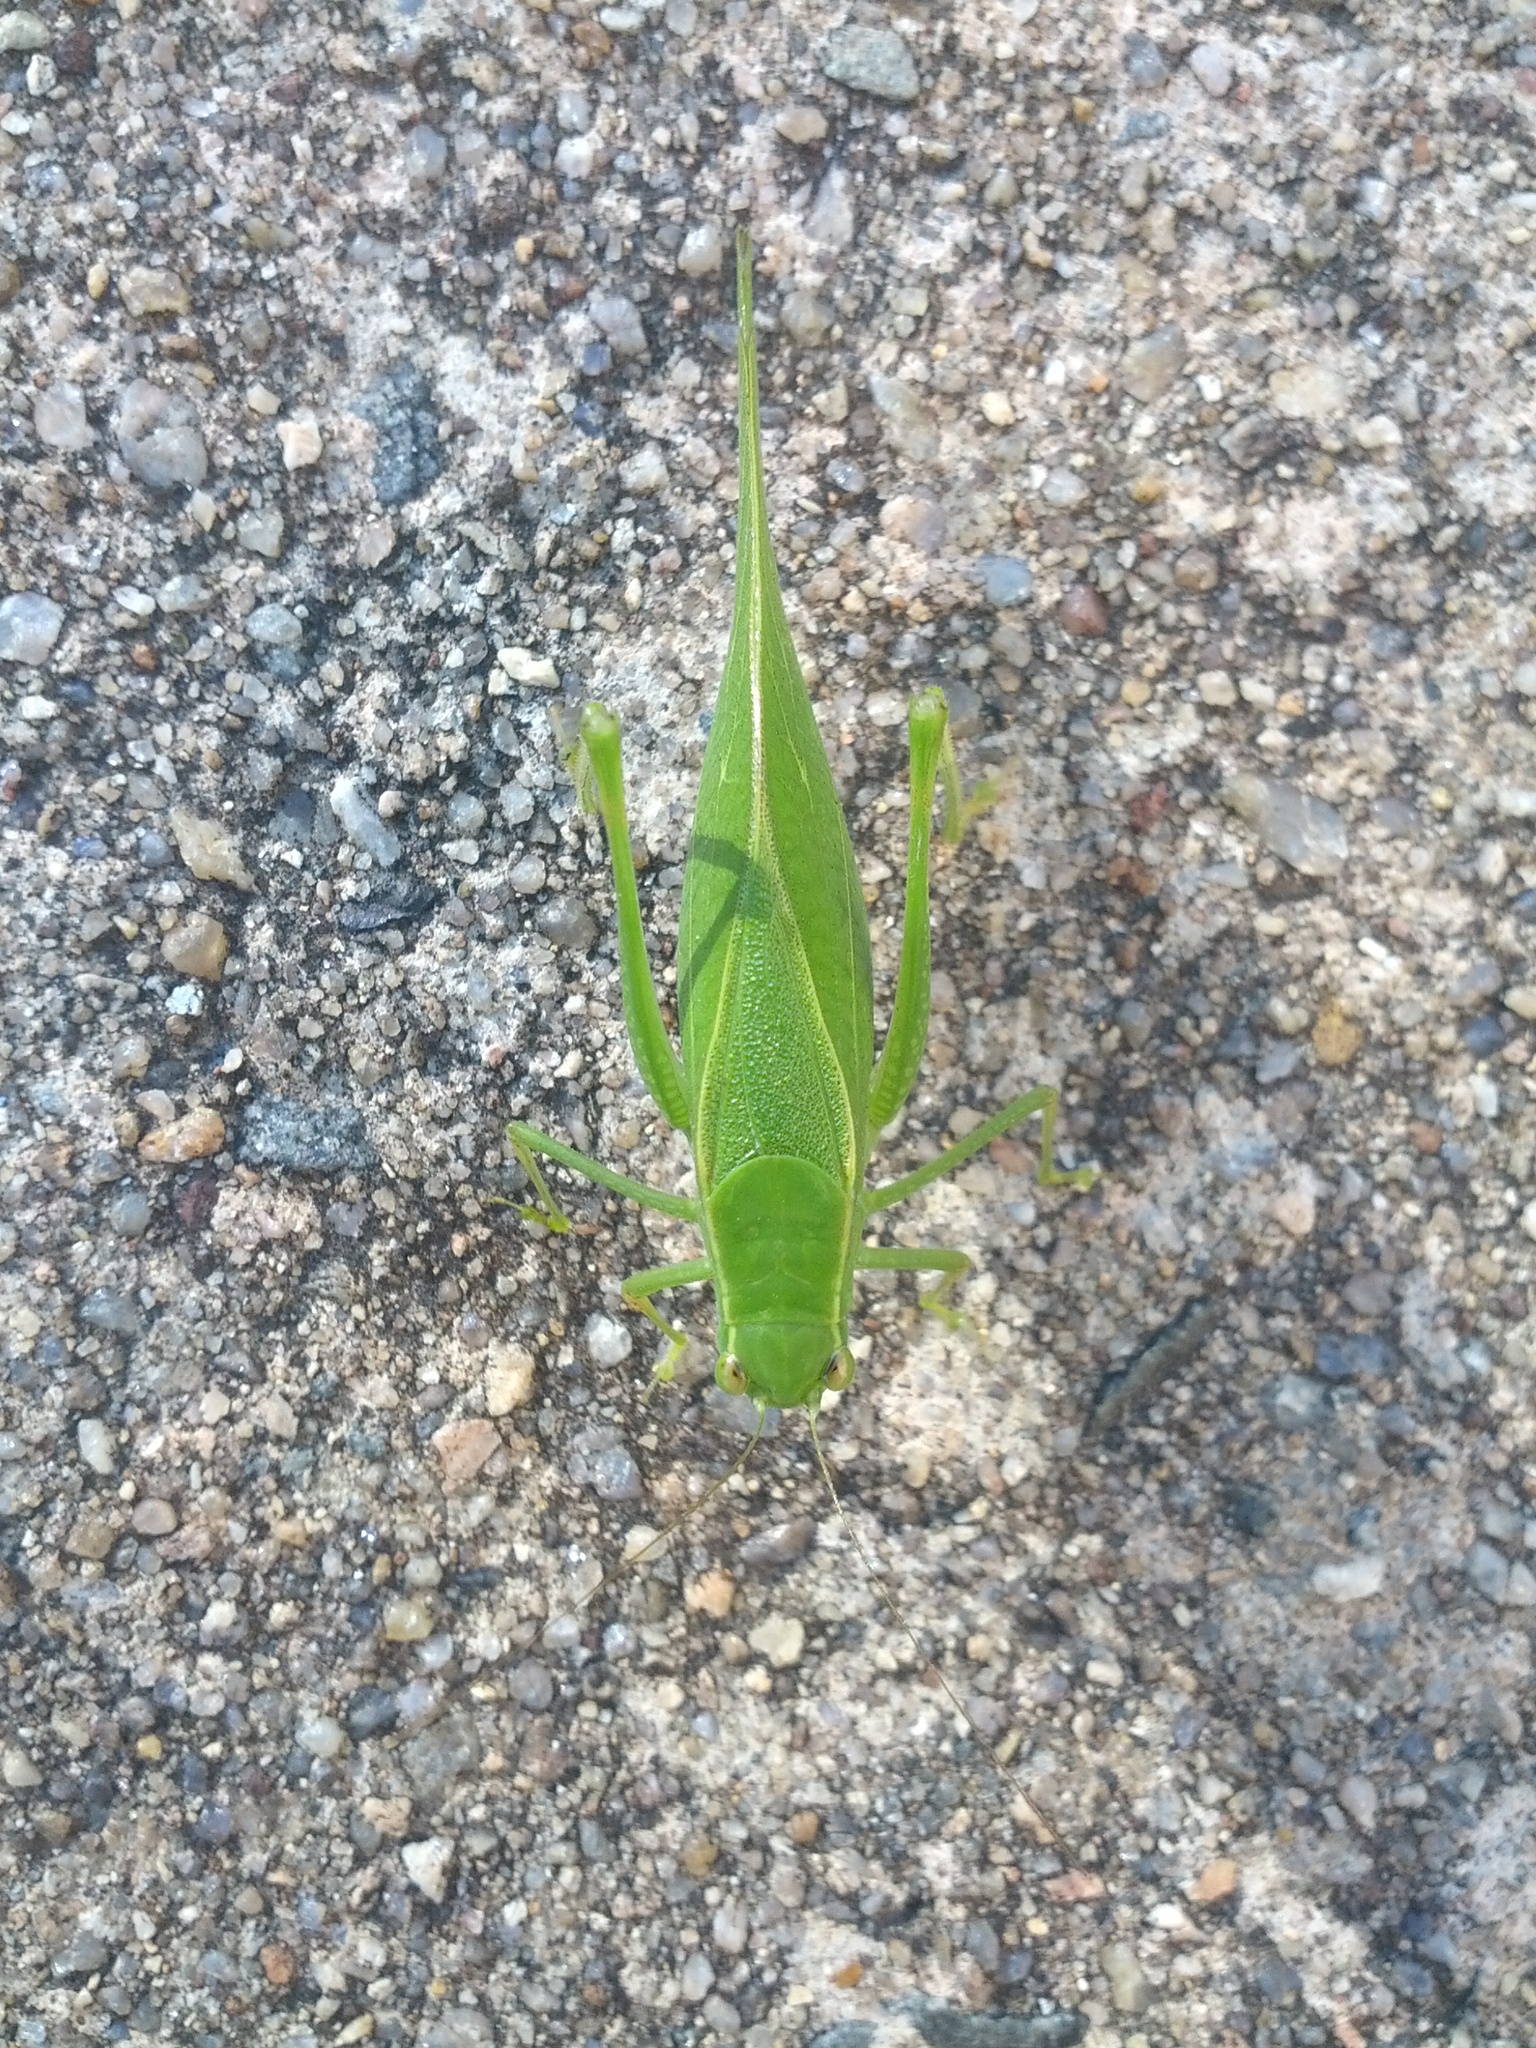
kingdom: Animalia
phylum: Arthropoda
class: Insecta
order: Orthoptera
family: Tettigoniidae
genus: Microcentrum
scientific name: Microcentrum retinerve
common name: Angular-winged katydid
